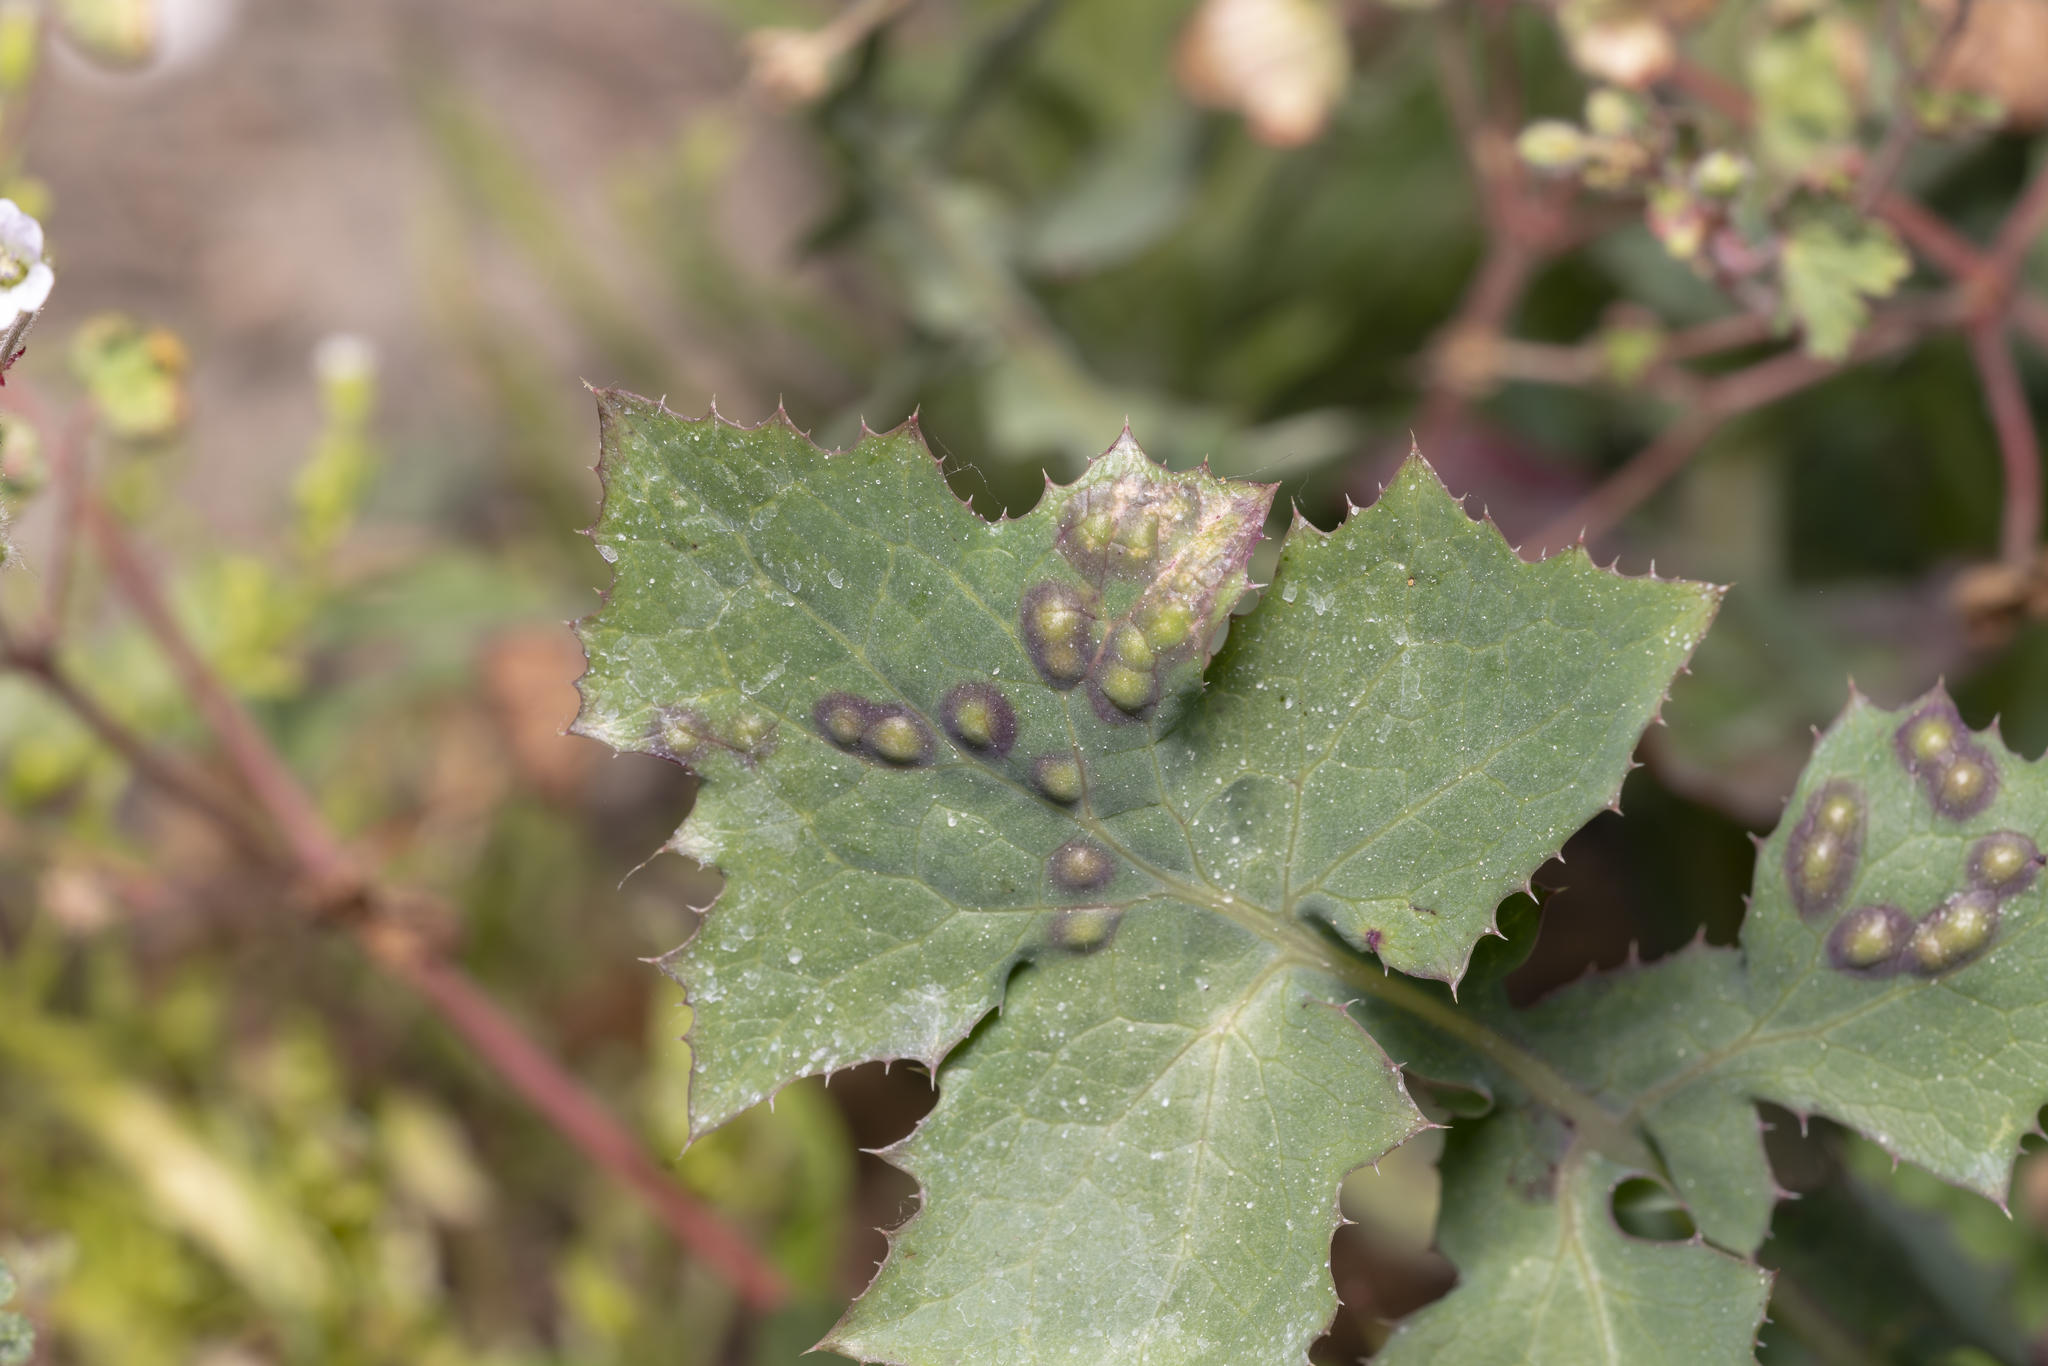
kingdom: Animalia
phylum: Arthropoda
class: Insecta
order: Diptera
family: Cecidomyiidae
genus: Cystiphora
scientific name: Cystiphora sonchi
